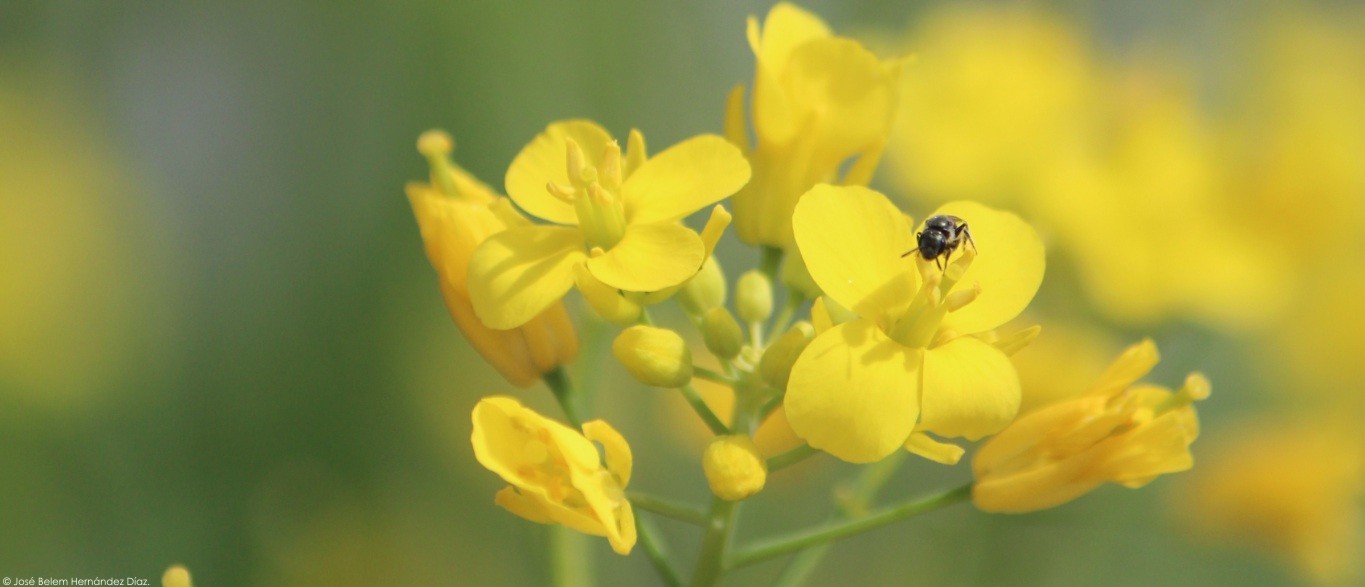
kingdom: Plantae
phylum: Tracheophyta
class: Magnoliopsida
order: Brassicales
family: Brassicaceae
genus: Brassica
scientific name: Brassica rapa
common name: Field mustard
